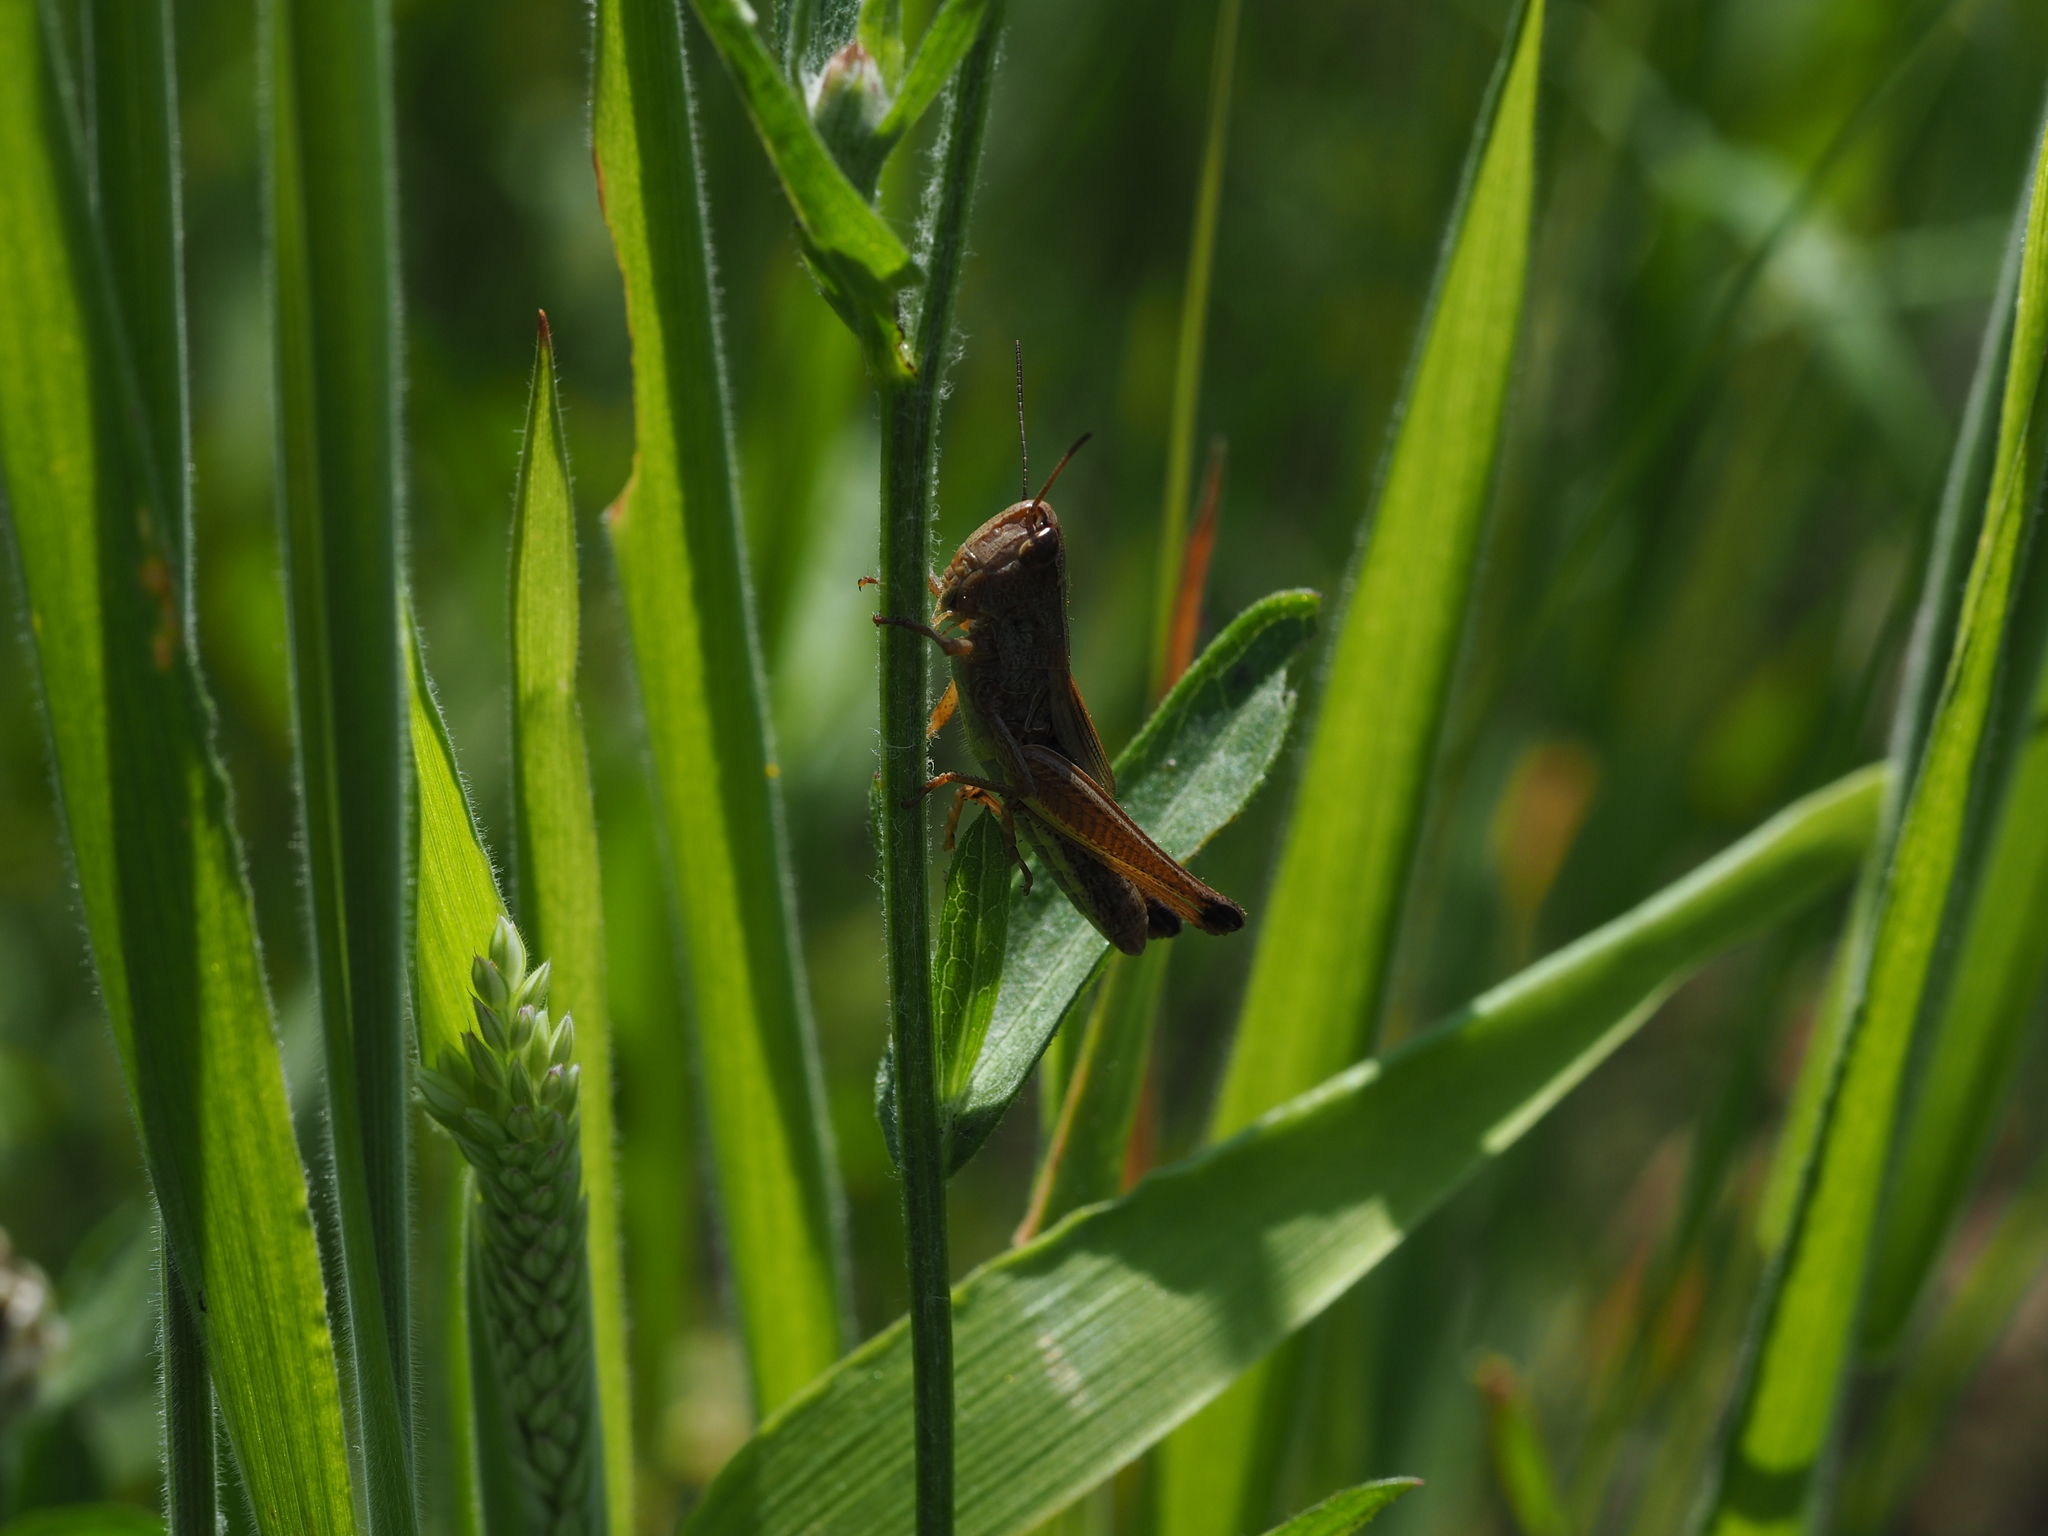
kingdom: Animalia
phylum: Arthropoda
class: Insecta
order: Orthoptera
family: Acrididae
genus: Pseudochorthippus
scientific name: Pseudochorthippus parallelus
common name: Meadow grasshopper
